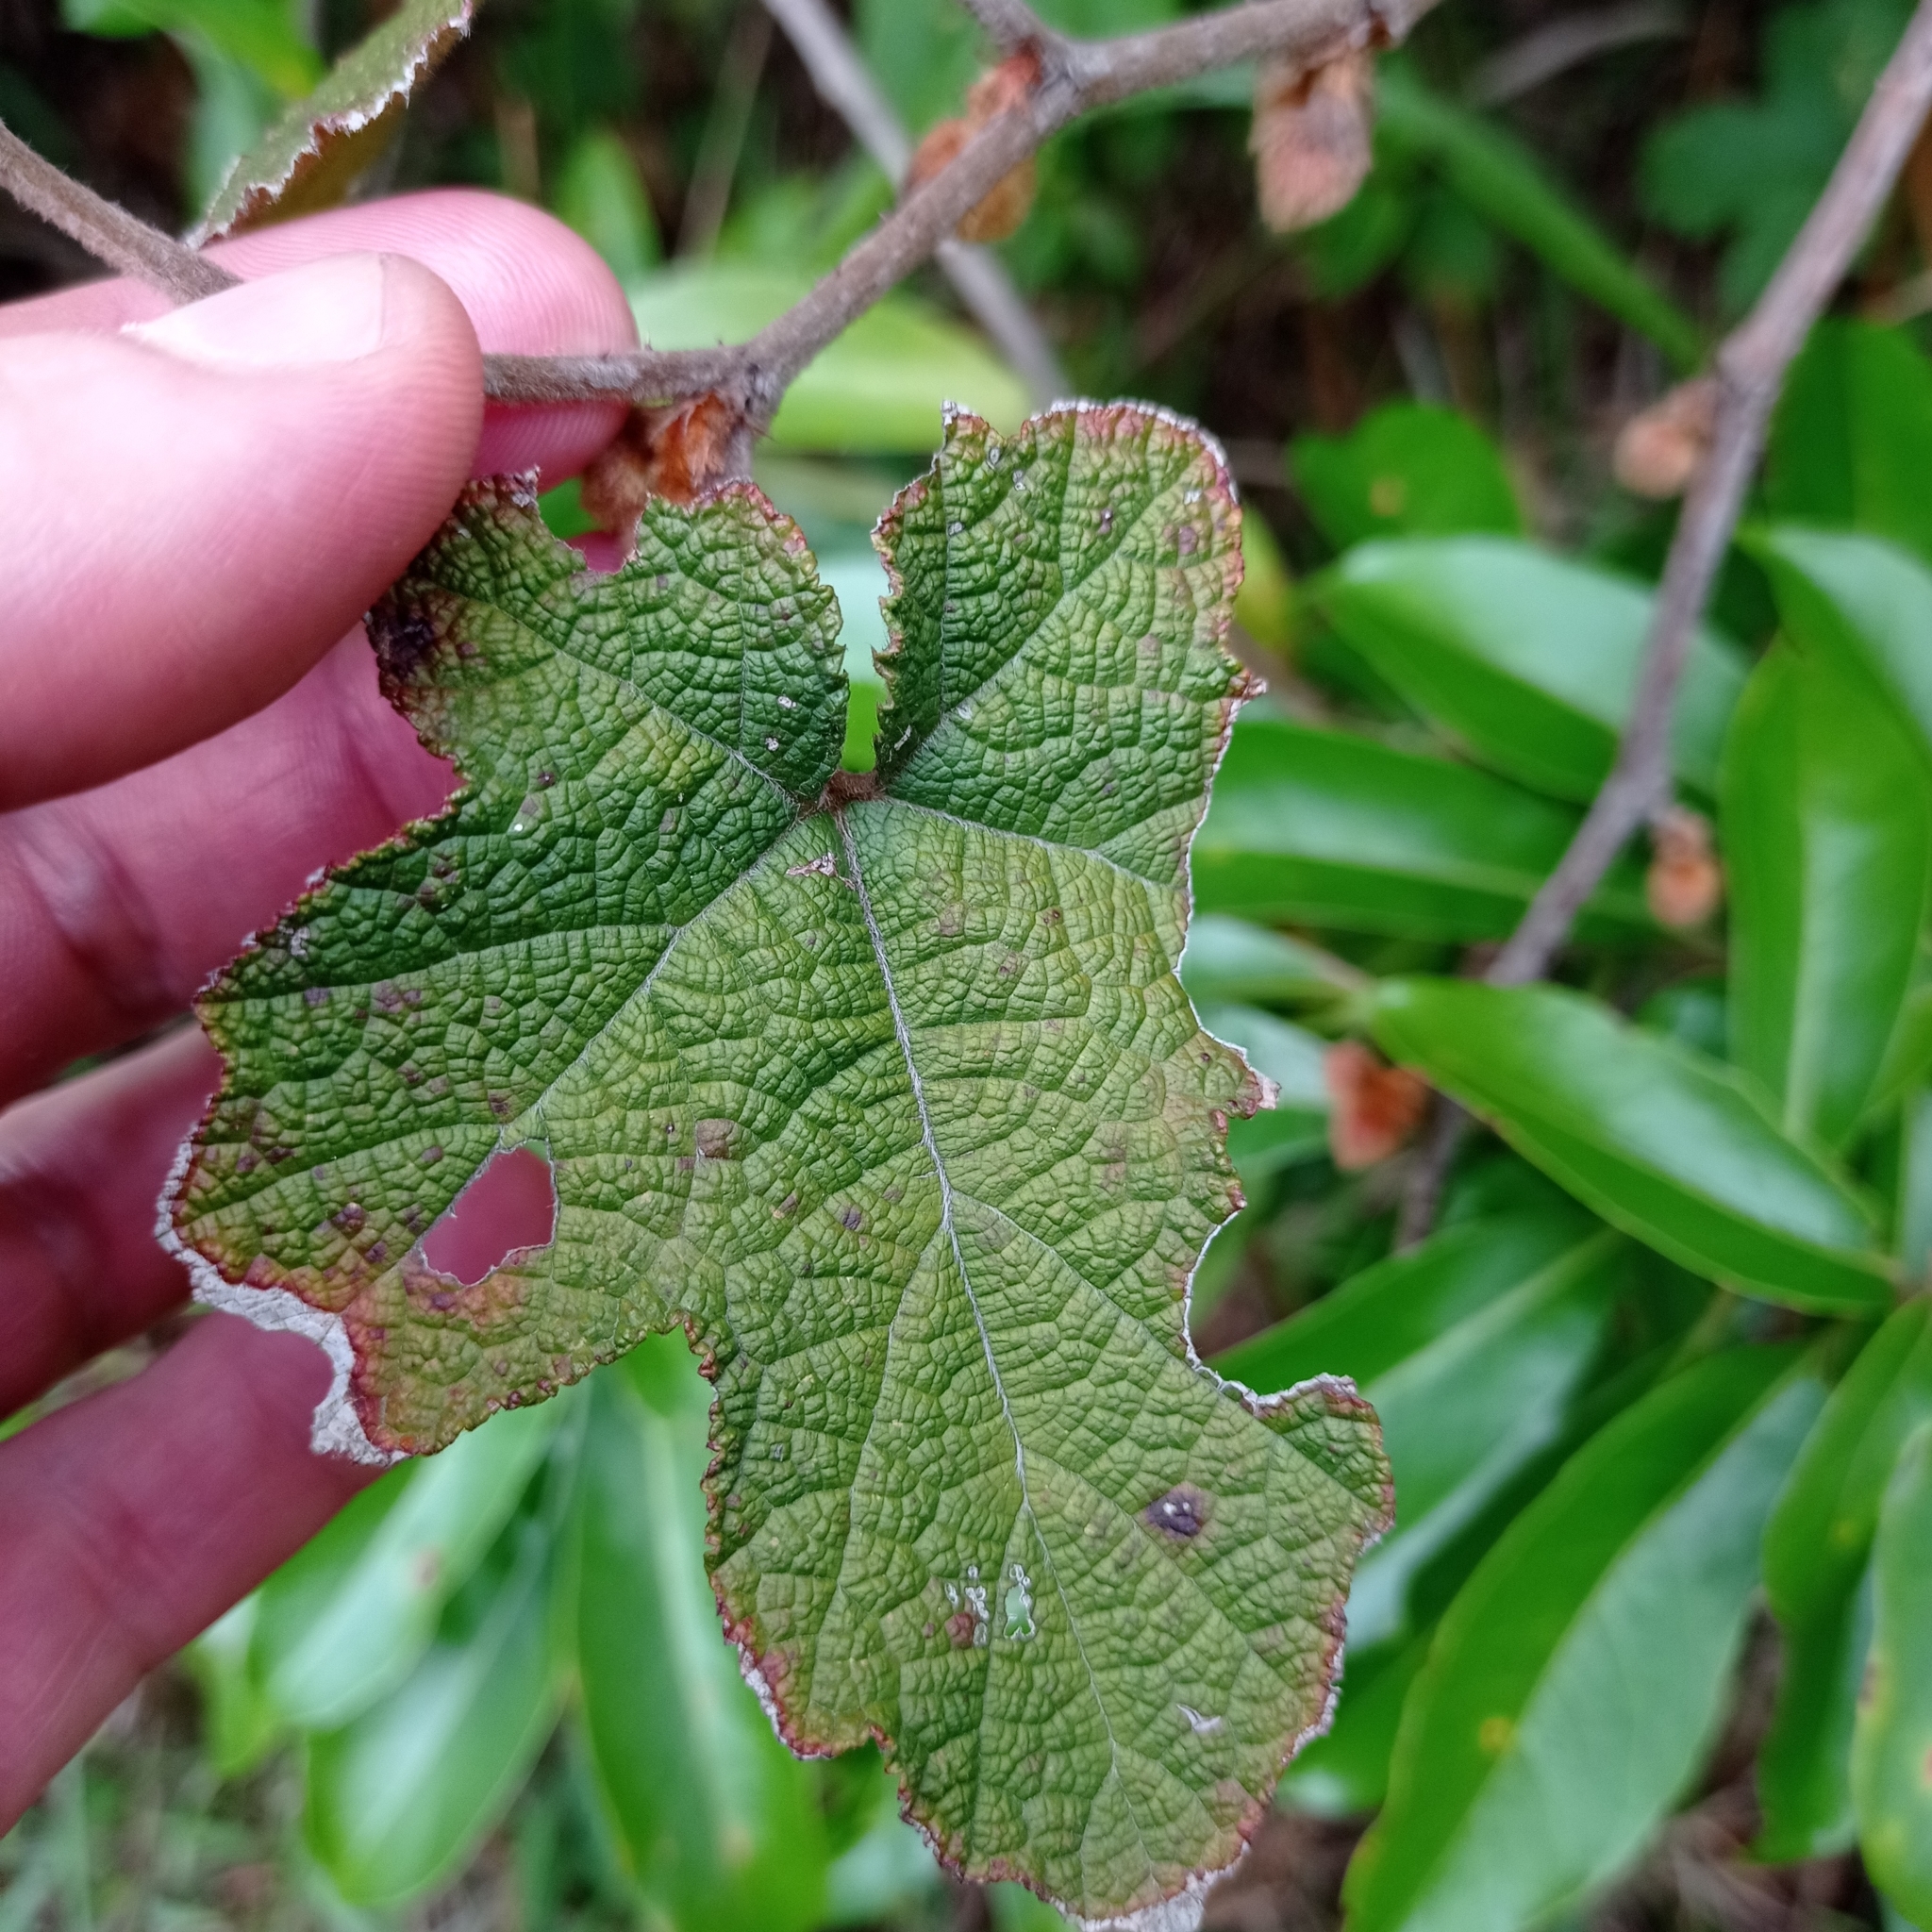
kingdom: Plantae
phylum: Tracheophyta
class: Magnoliopsida
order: Rosales
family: Rosaceae
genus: Rubus
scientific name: Rubus reflexus
